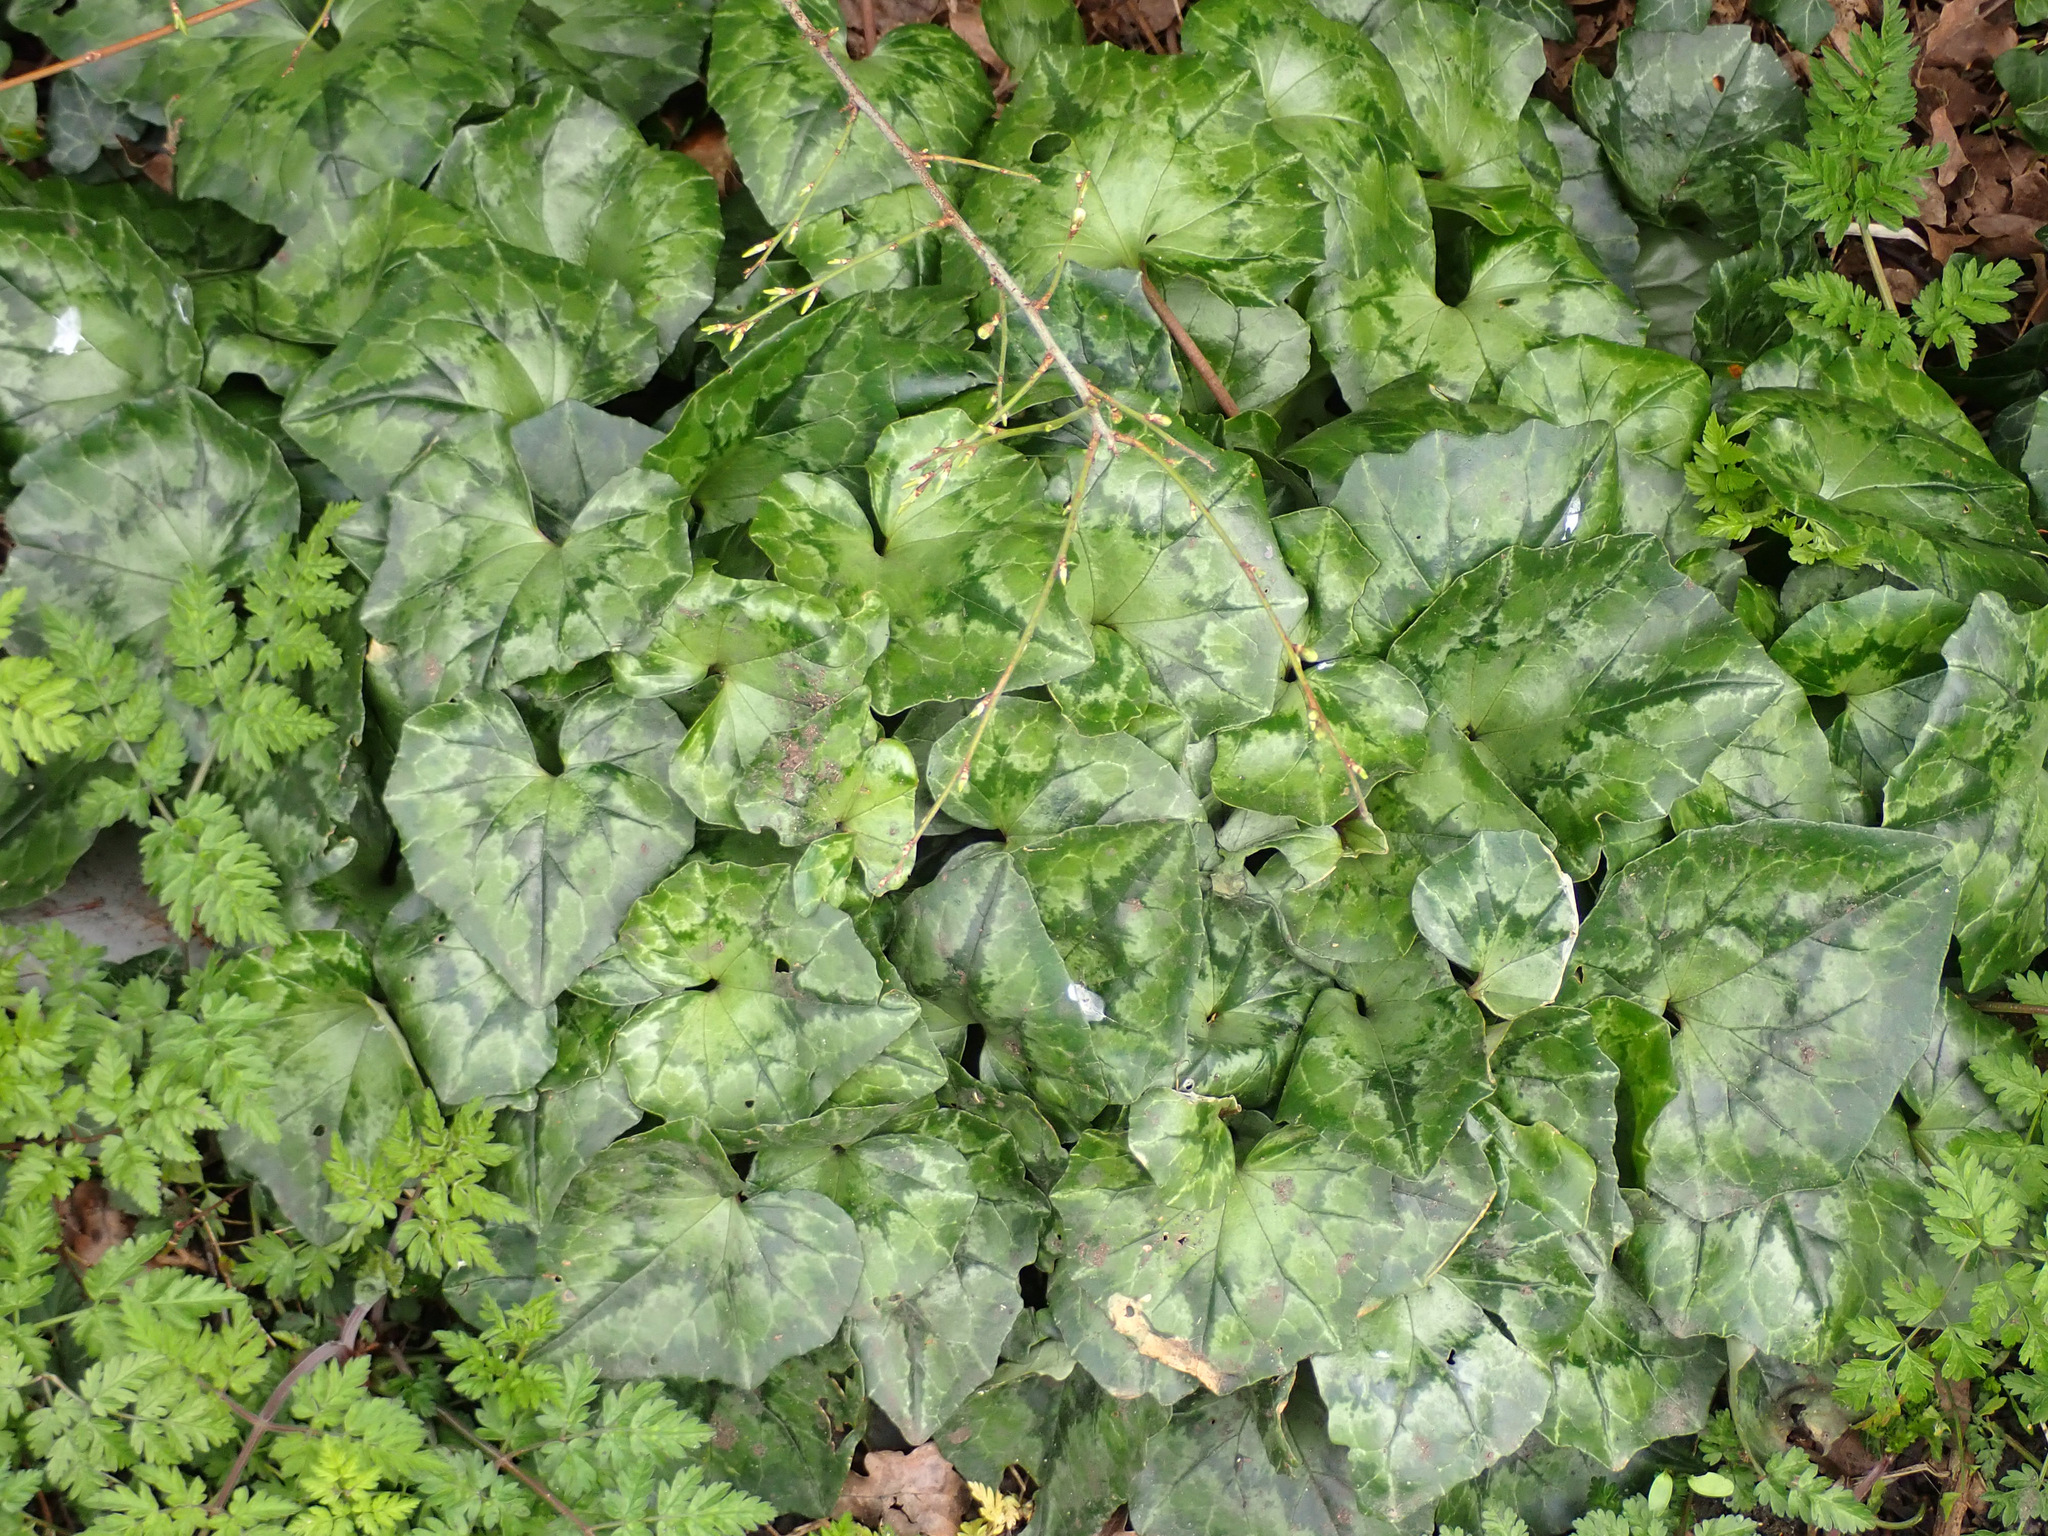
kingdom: Plantae
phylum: Tracheophyta
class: Magnoliopsida
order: Ericales
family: Primulaceae
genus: Cyclamen
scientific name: Cyclamen hederifolium
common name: Sowbread
